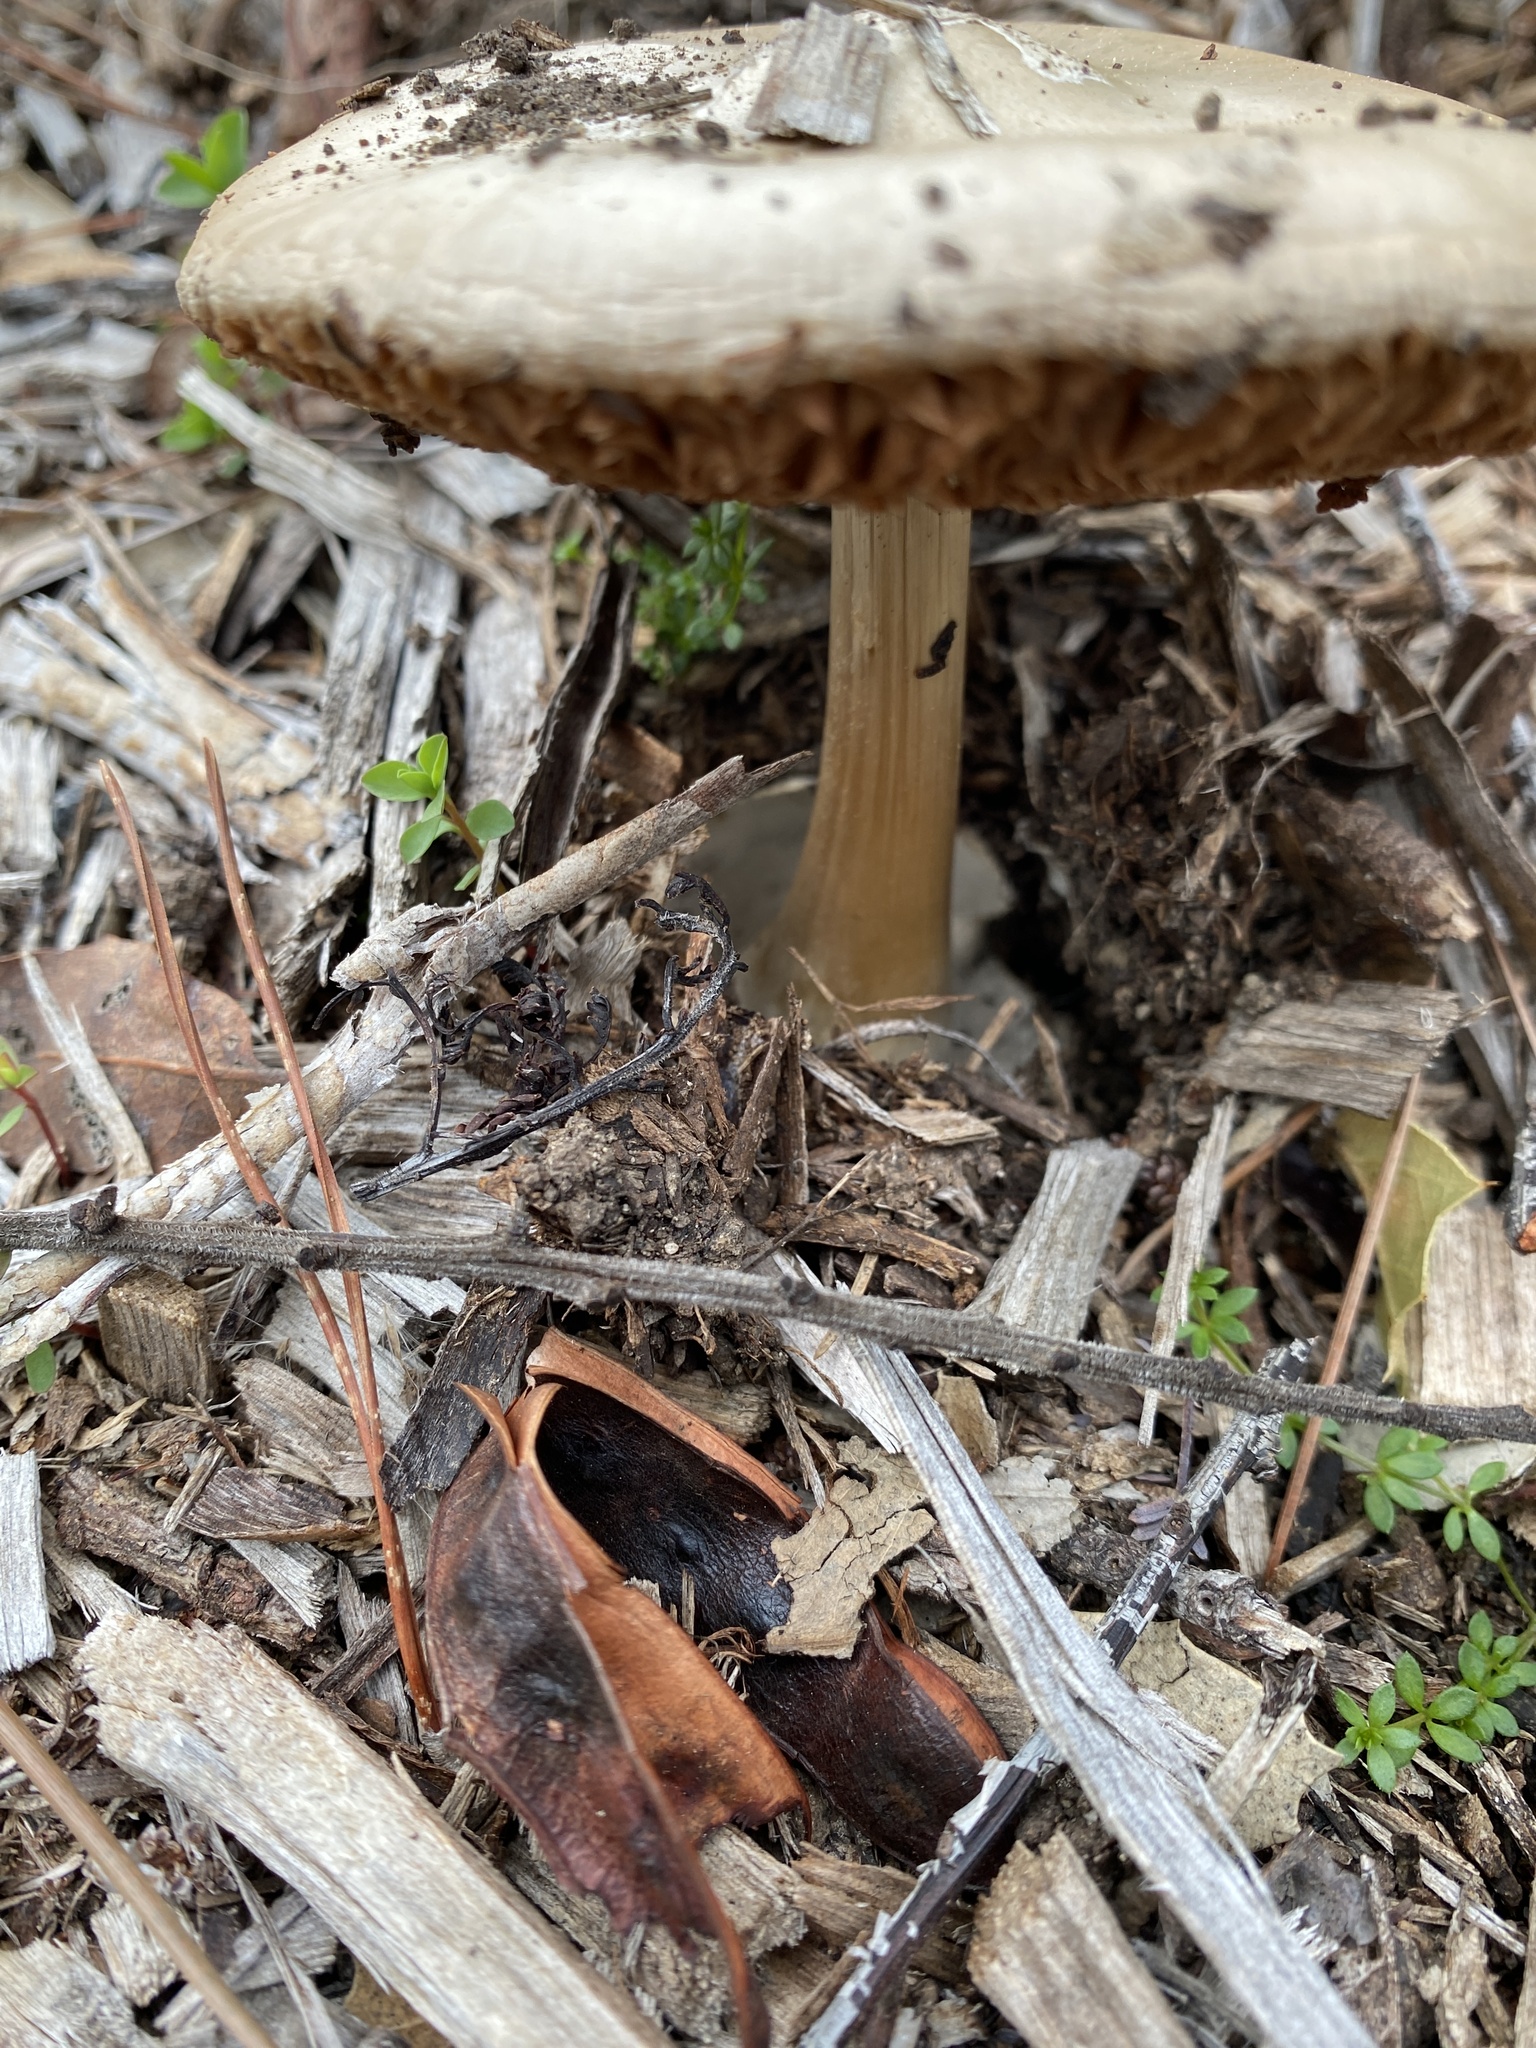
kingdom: Fungi
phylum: Basidiomycota
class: Agaricomycetes
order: Agaricales
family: Pluteaceae
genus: Volvopluteus
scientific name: Volvopluteus gloiocephalus
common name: Stubble rosegill
